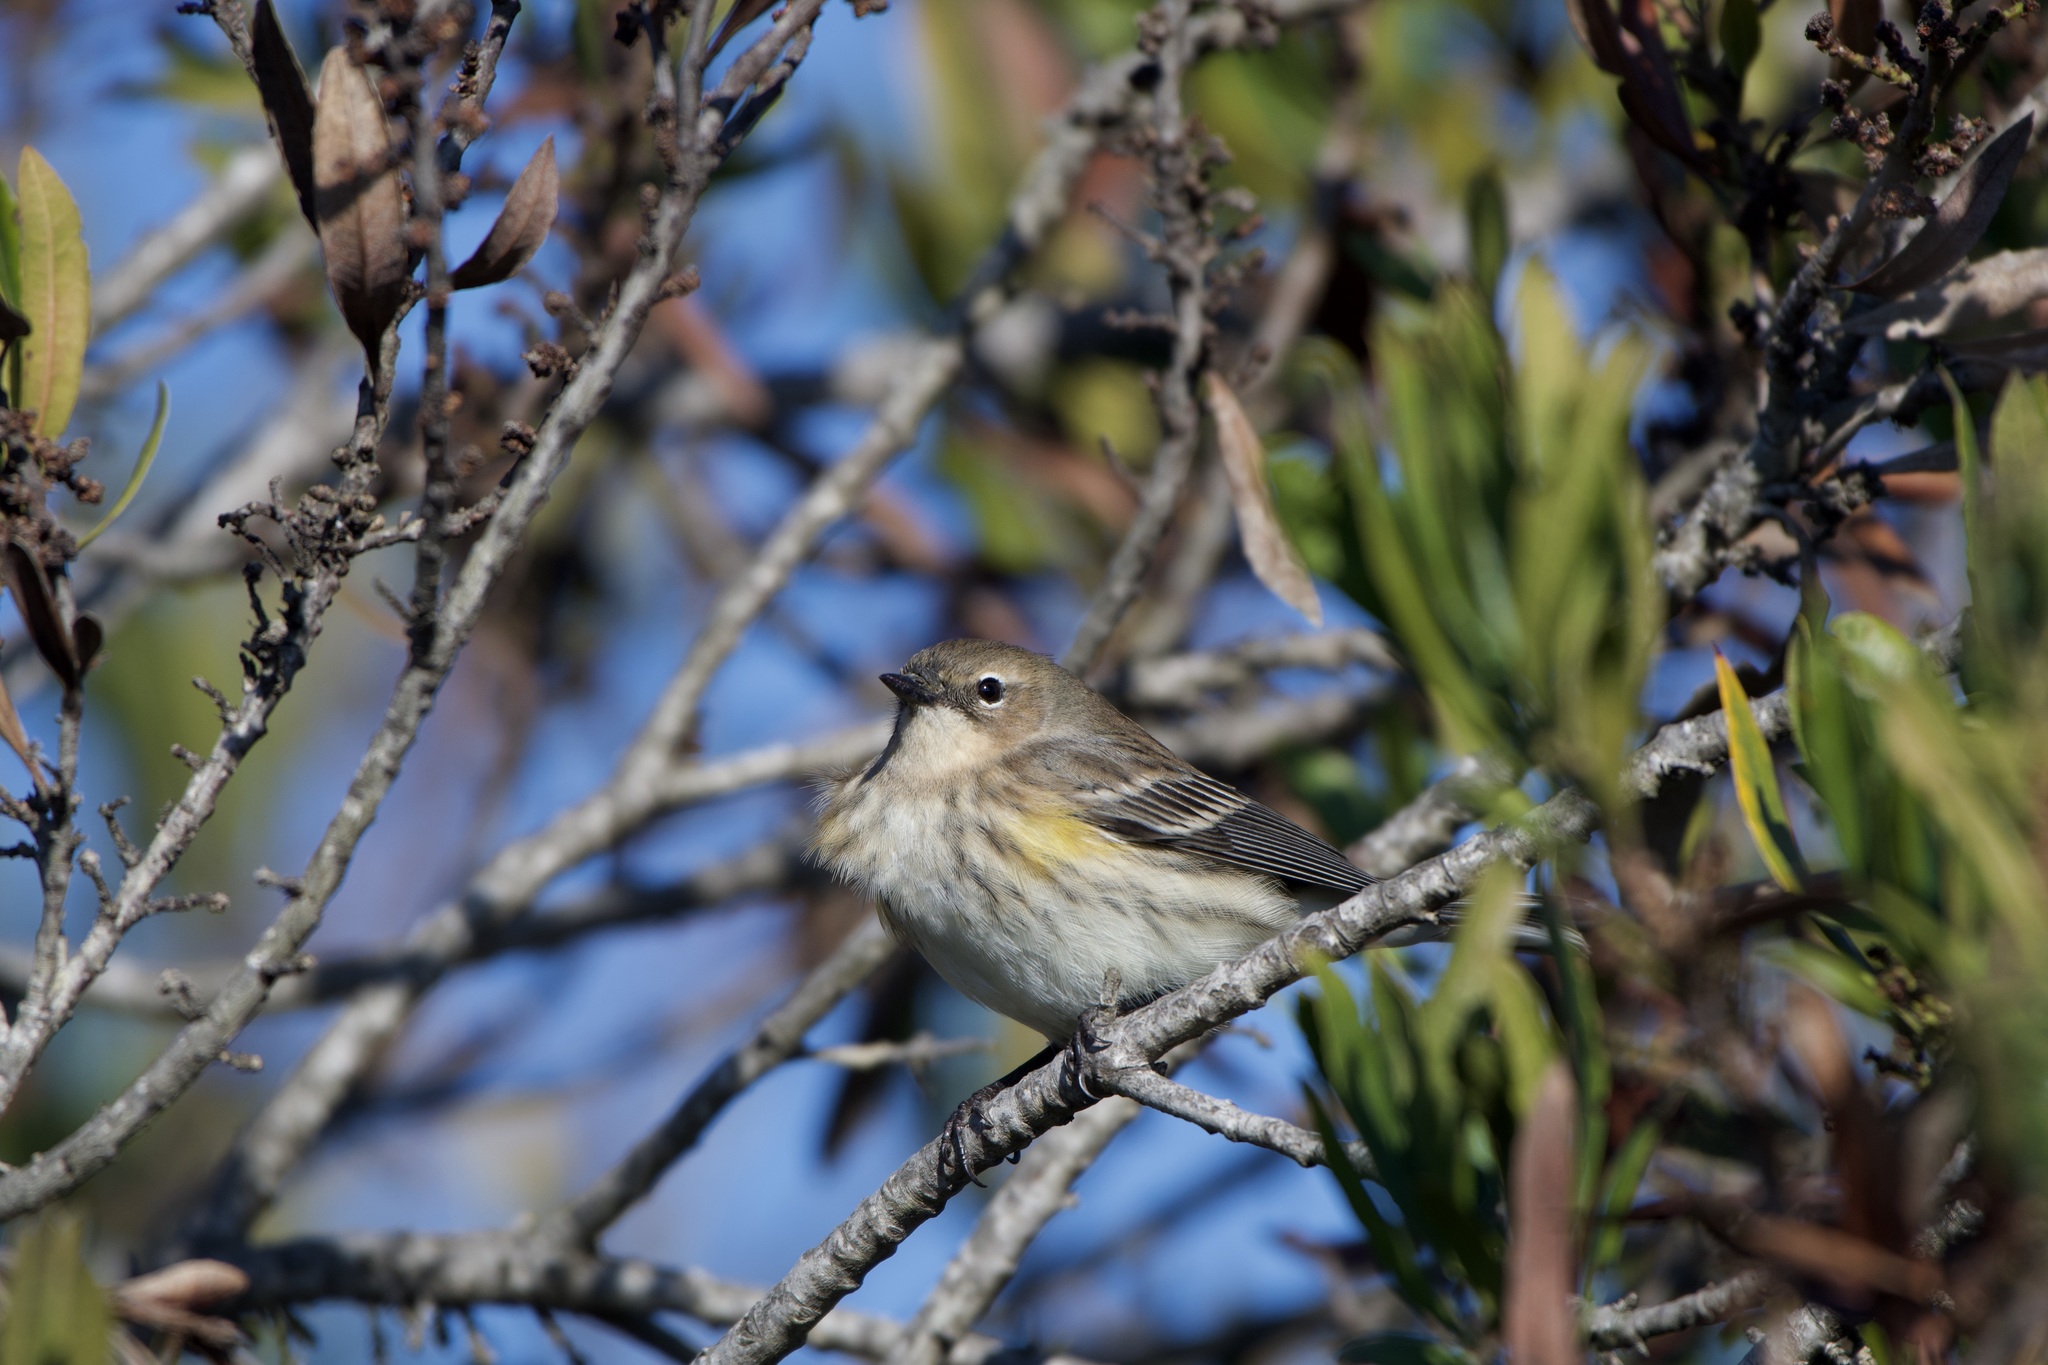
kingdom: Animalia
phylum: Chordata
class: Aves
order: Passeriformes
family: Parulidae
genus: Setophaga
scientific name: Setophaga coronata
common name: Myrtle warbler
